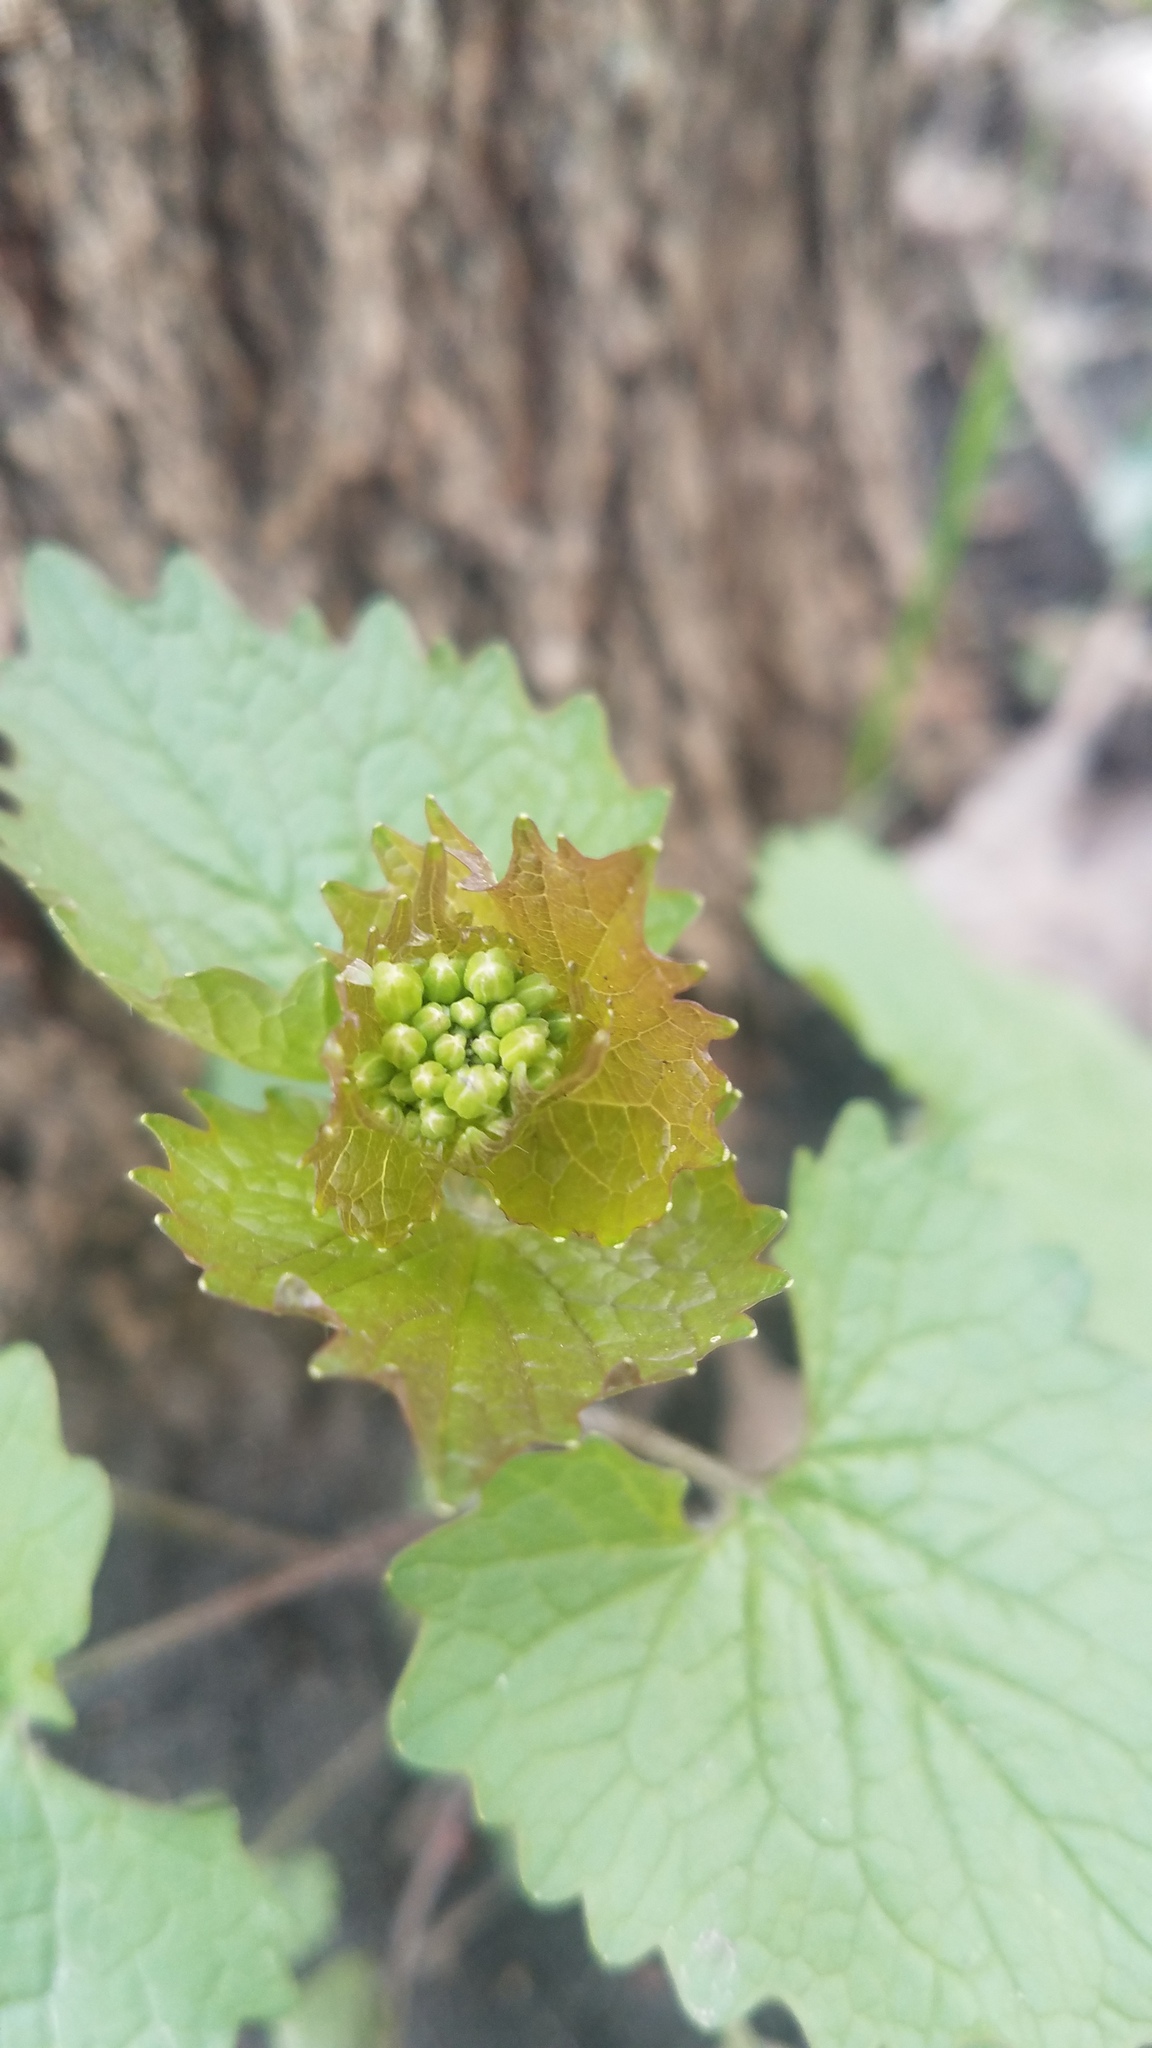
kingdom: Plantae
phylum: Tracheophyta
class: Magnoliopsida
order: Brassicales
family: Brassicaceae
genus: Alliaria
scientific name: Alliaria petiolata
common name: Garlic mustard
